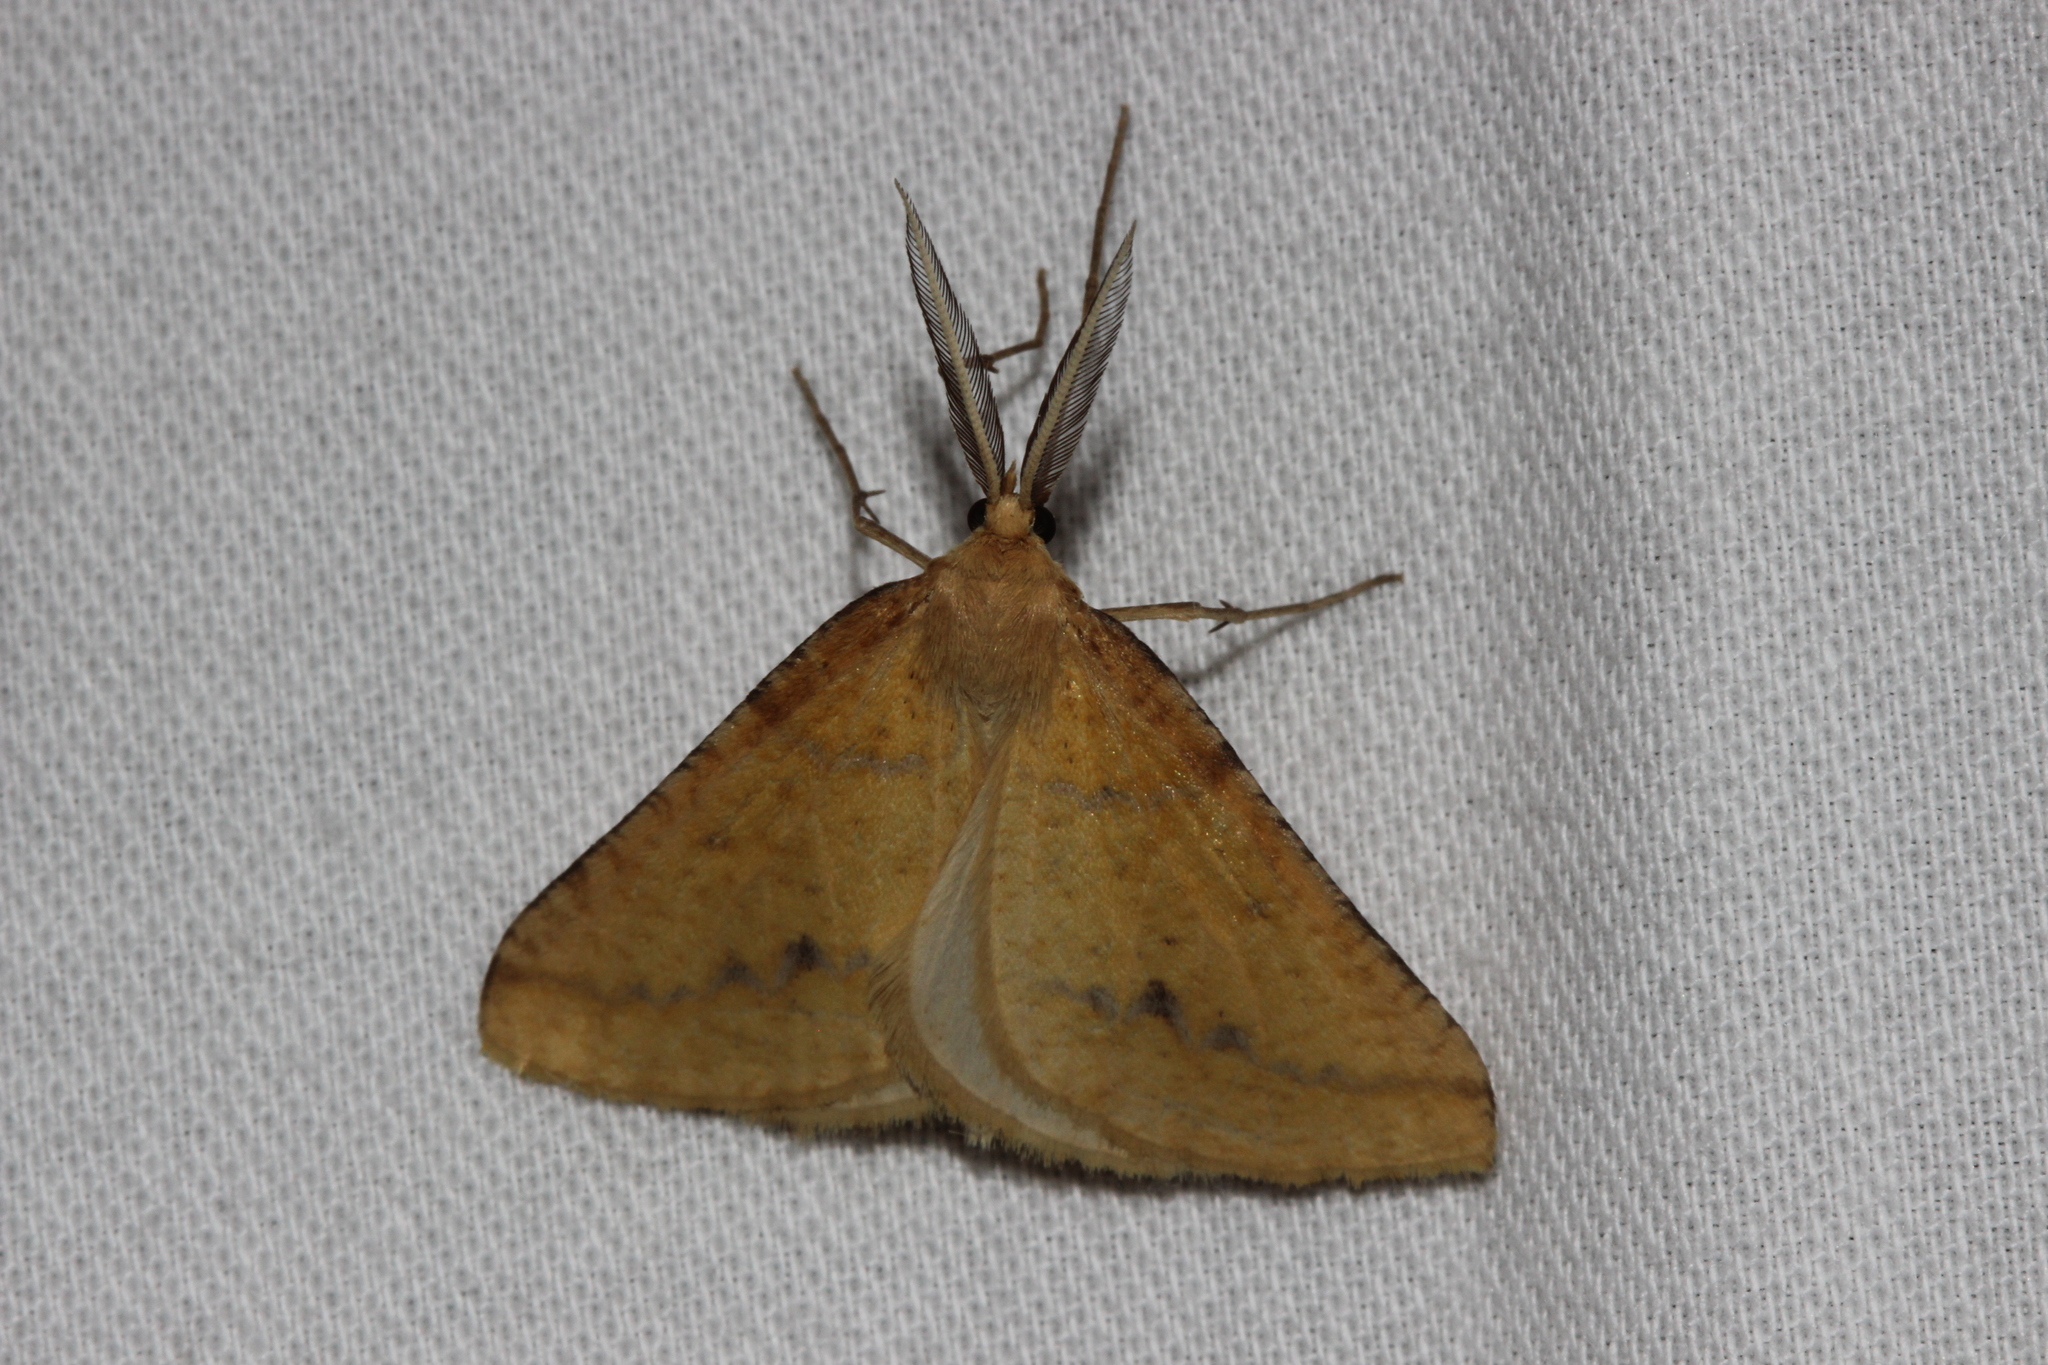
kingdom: Animalia
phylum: Arthropoda
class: Insecta
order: Lepidoptera
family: Geometridae
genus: Aspitates
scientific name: Aspitates ochrearia
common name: Yellow belle
